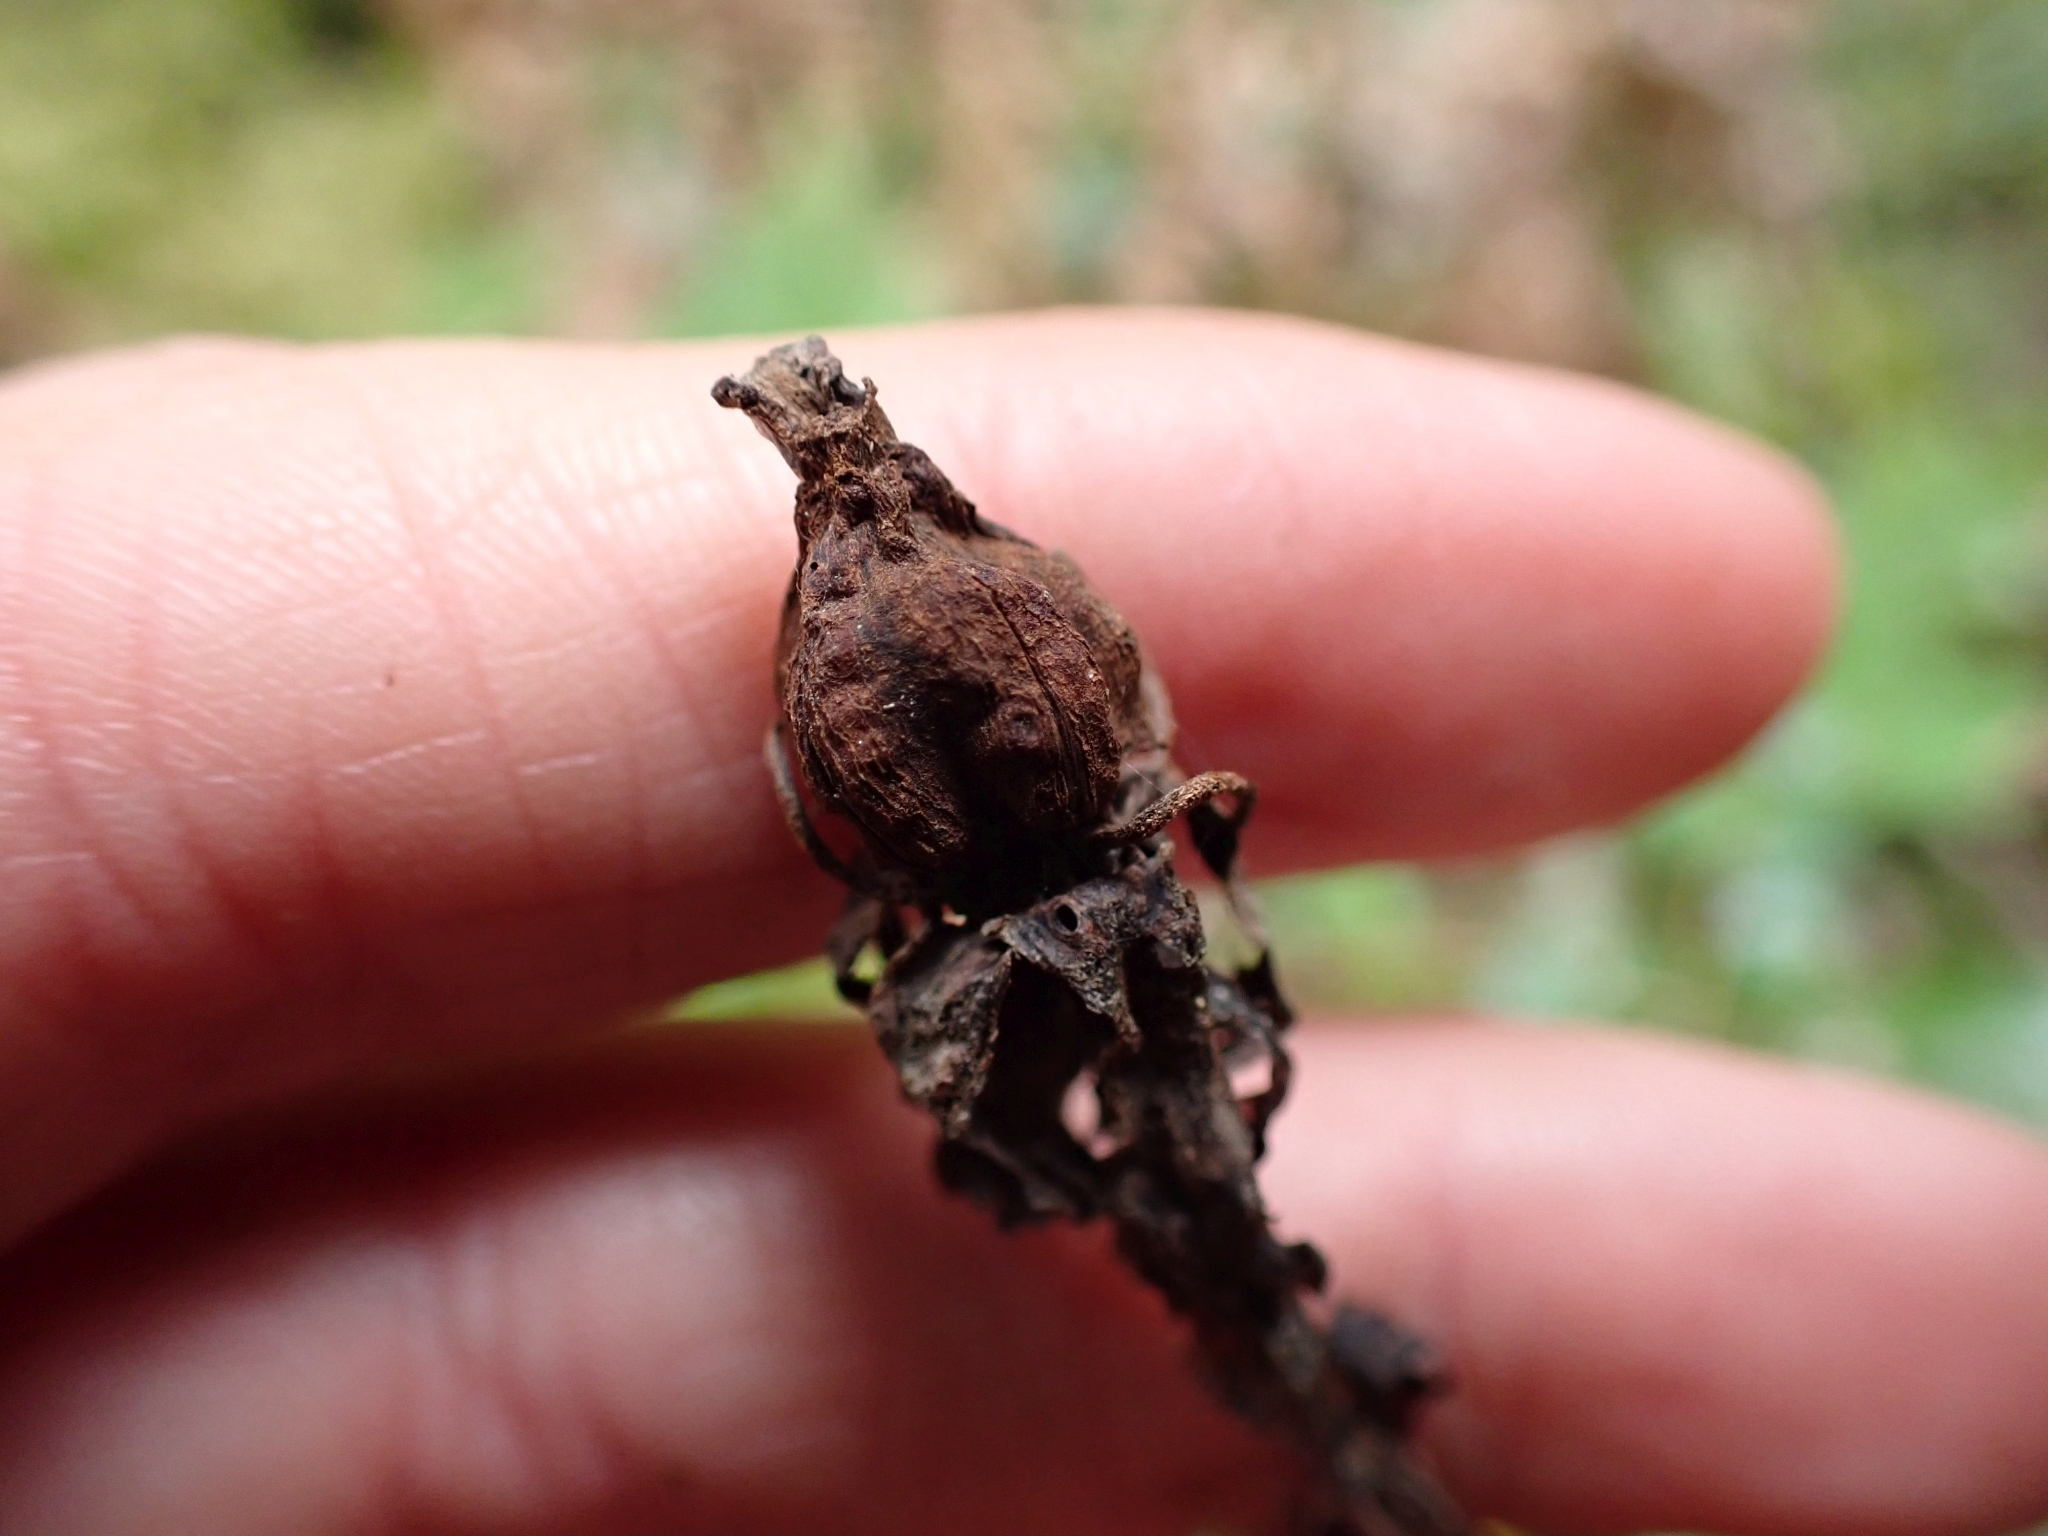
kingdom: Plantae
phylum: Tracheophyta
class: Magnoliopsida
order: Ericales
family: Ericaceae
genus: Monotropa
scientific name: Monotropa uniflora
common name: Convulsion root
